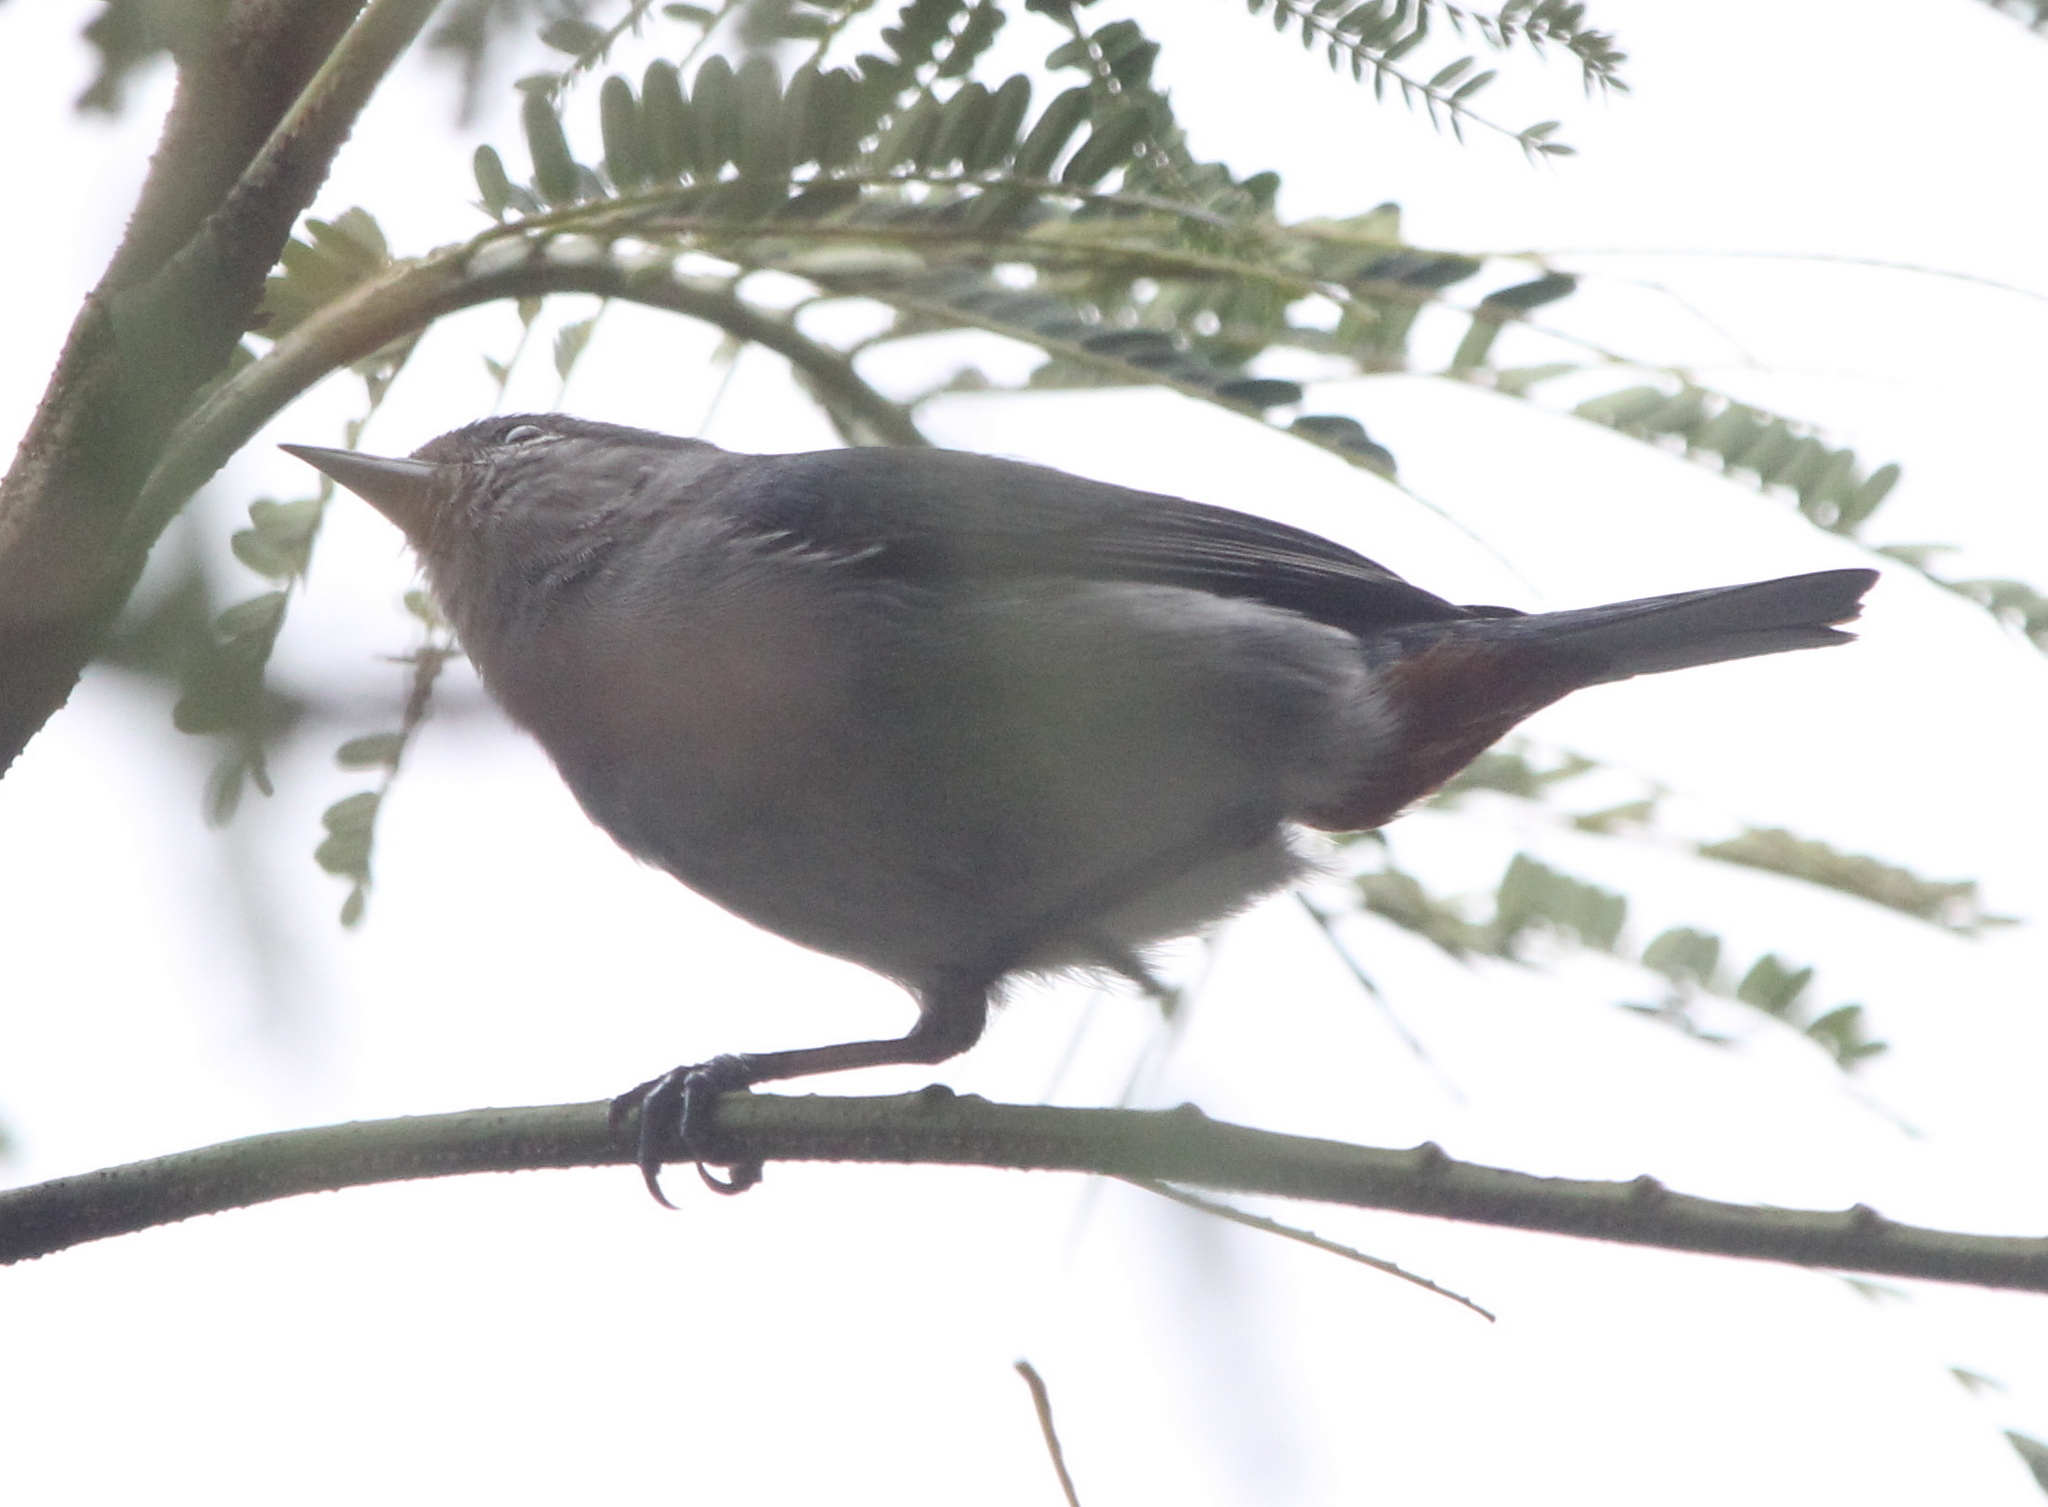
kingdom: Animalia
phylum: Chordata
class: Aves
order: Passeriformes
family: Thraupidae
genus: Conirostrum
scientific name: Conirostrum speciosum
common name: Chestnut-vented conebill
